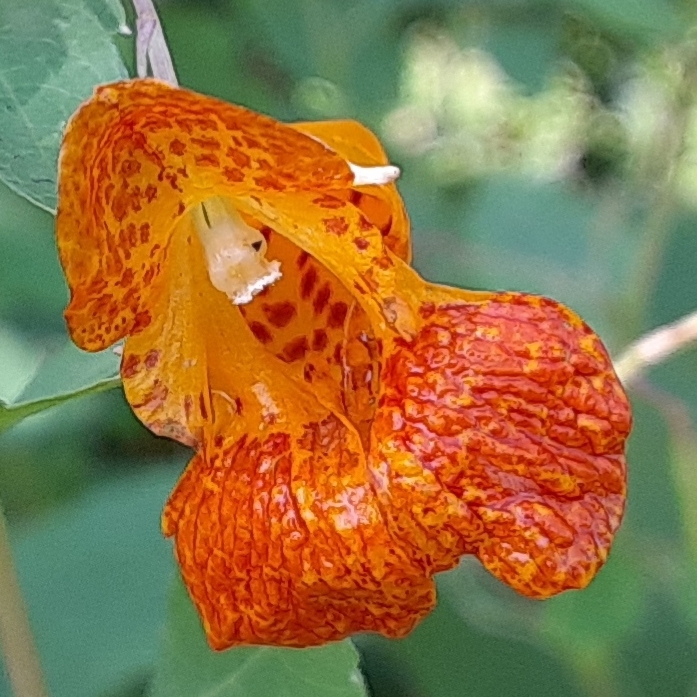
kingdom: Plantae
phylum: Tracheophyta
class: Magnoliopsida
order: Ericales
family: Balsaminaceae
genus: Impatiens
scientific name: Impatiens capensis
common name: Orange balsam
